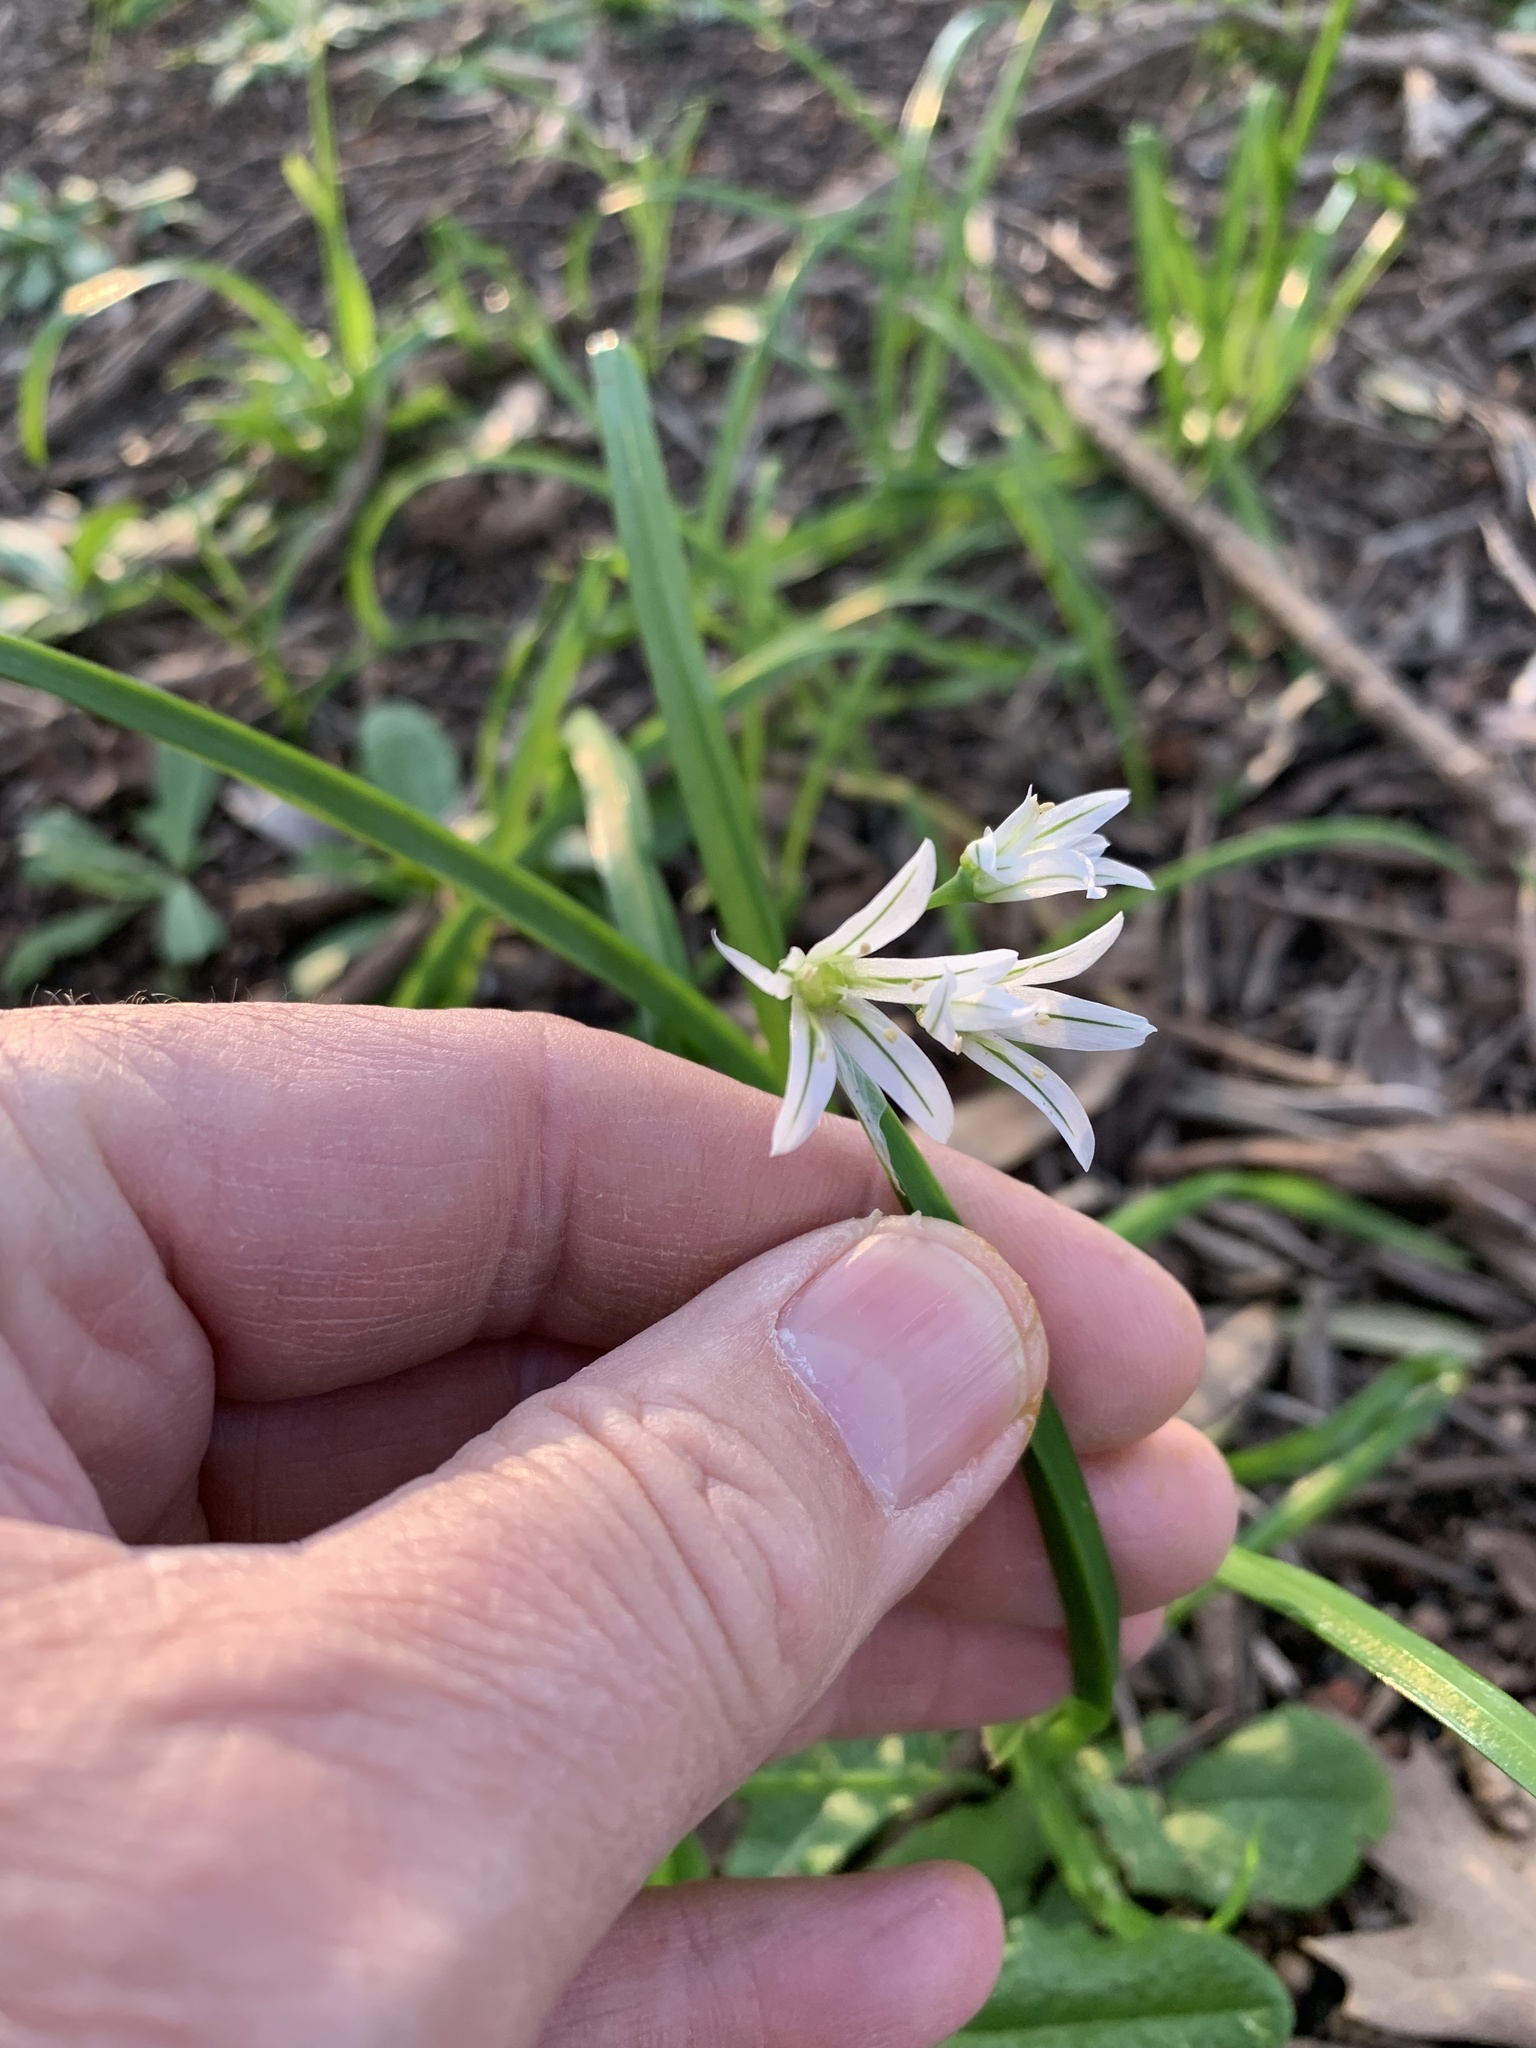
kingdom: Plantae
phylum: Tracheophyta
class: Liliopsida
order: Asparagales
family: Amaryllidaceae
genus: Allium
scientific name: Allium triquetrum
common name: Three-cornered garlic
